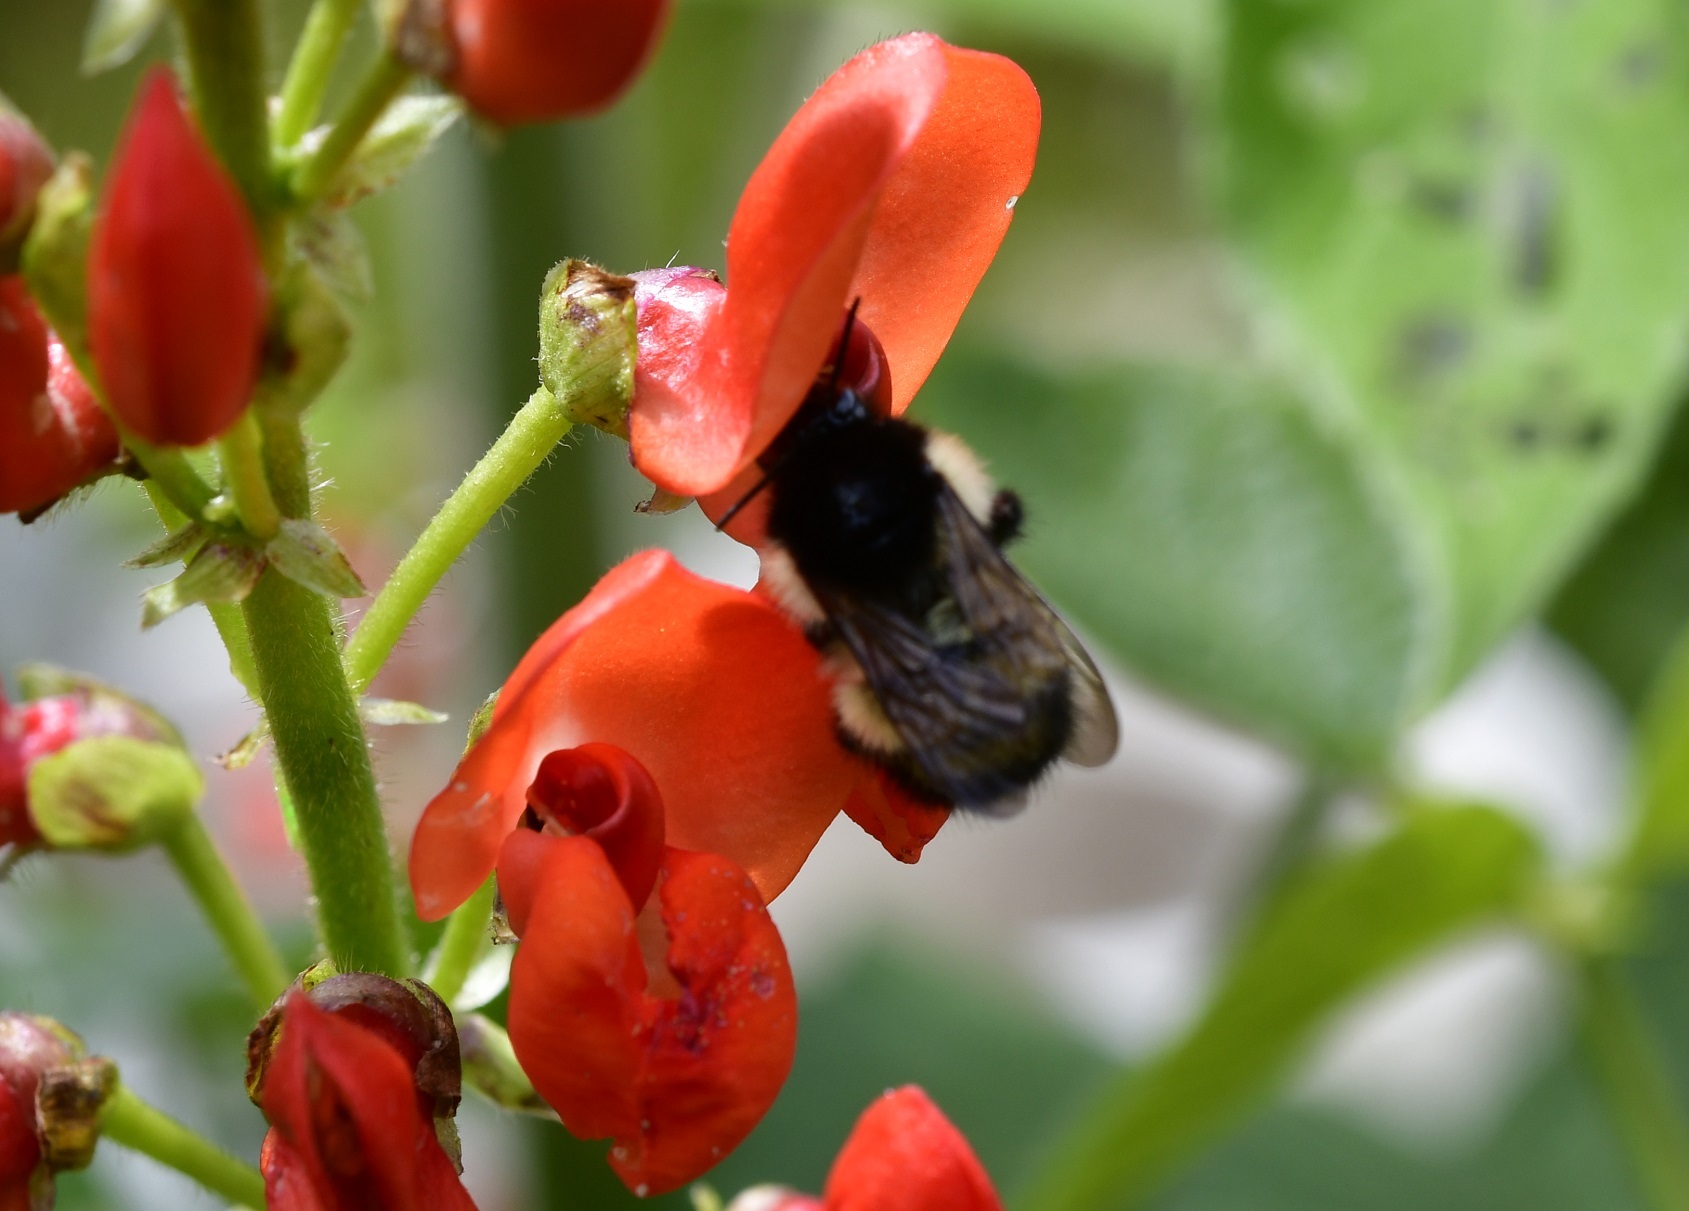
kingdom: Animalia
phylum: Arthropoda
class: Insecta
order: Hymenoptera
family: Apidae
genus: Bombus
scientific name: Bombus ephippiatus
